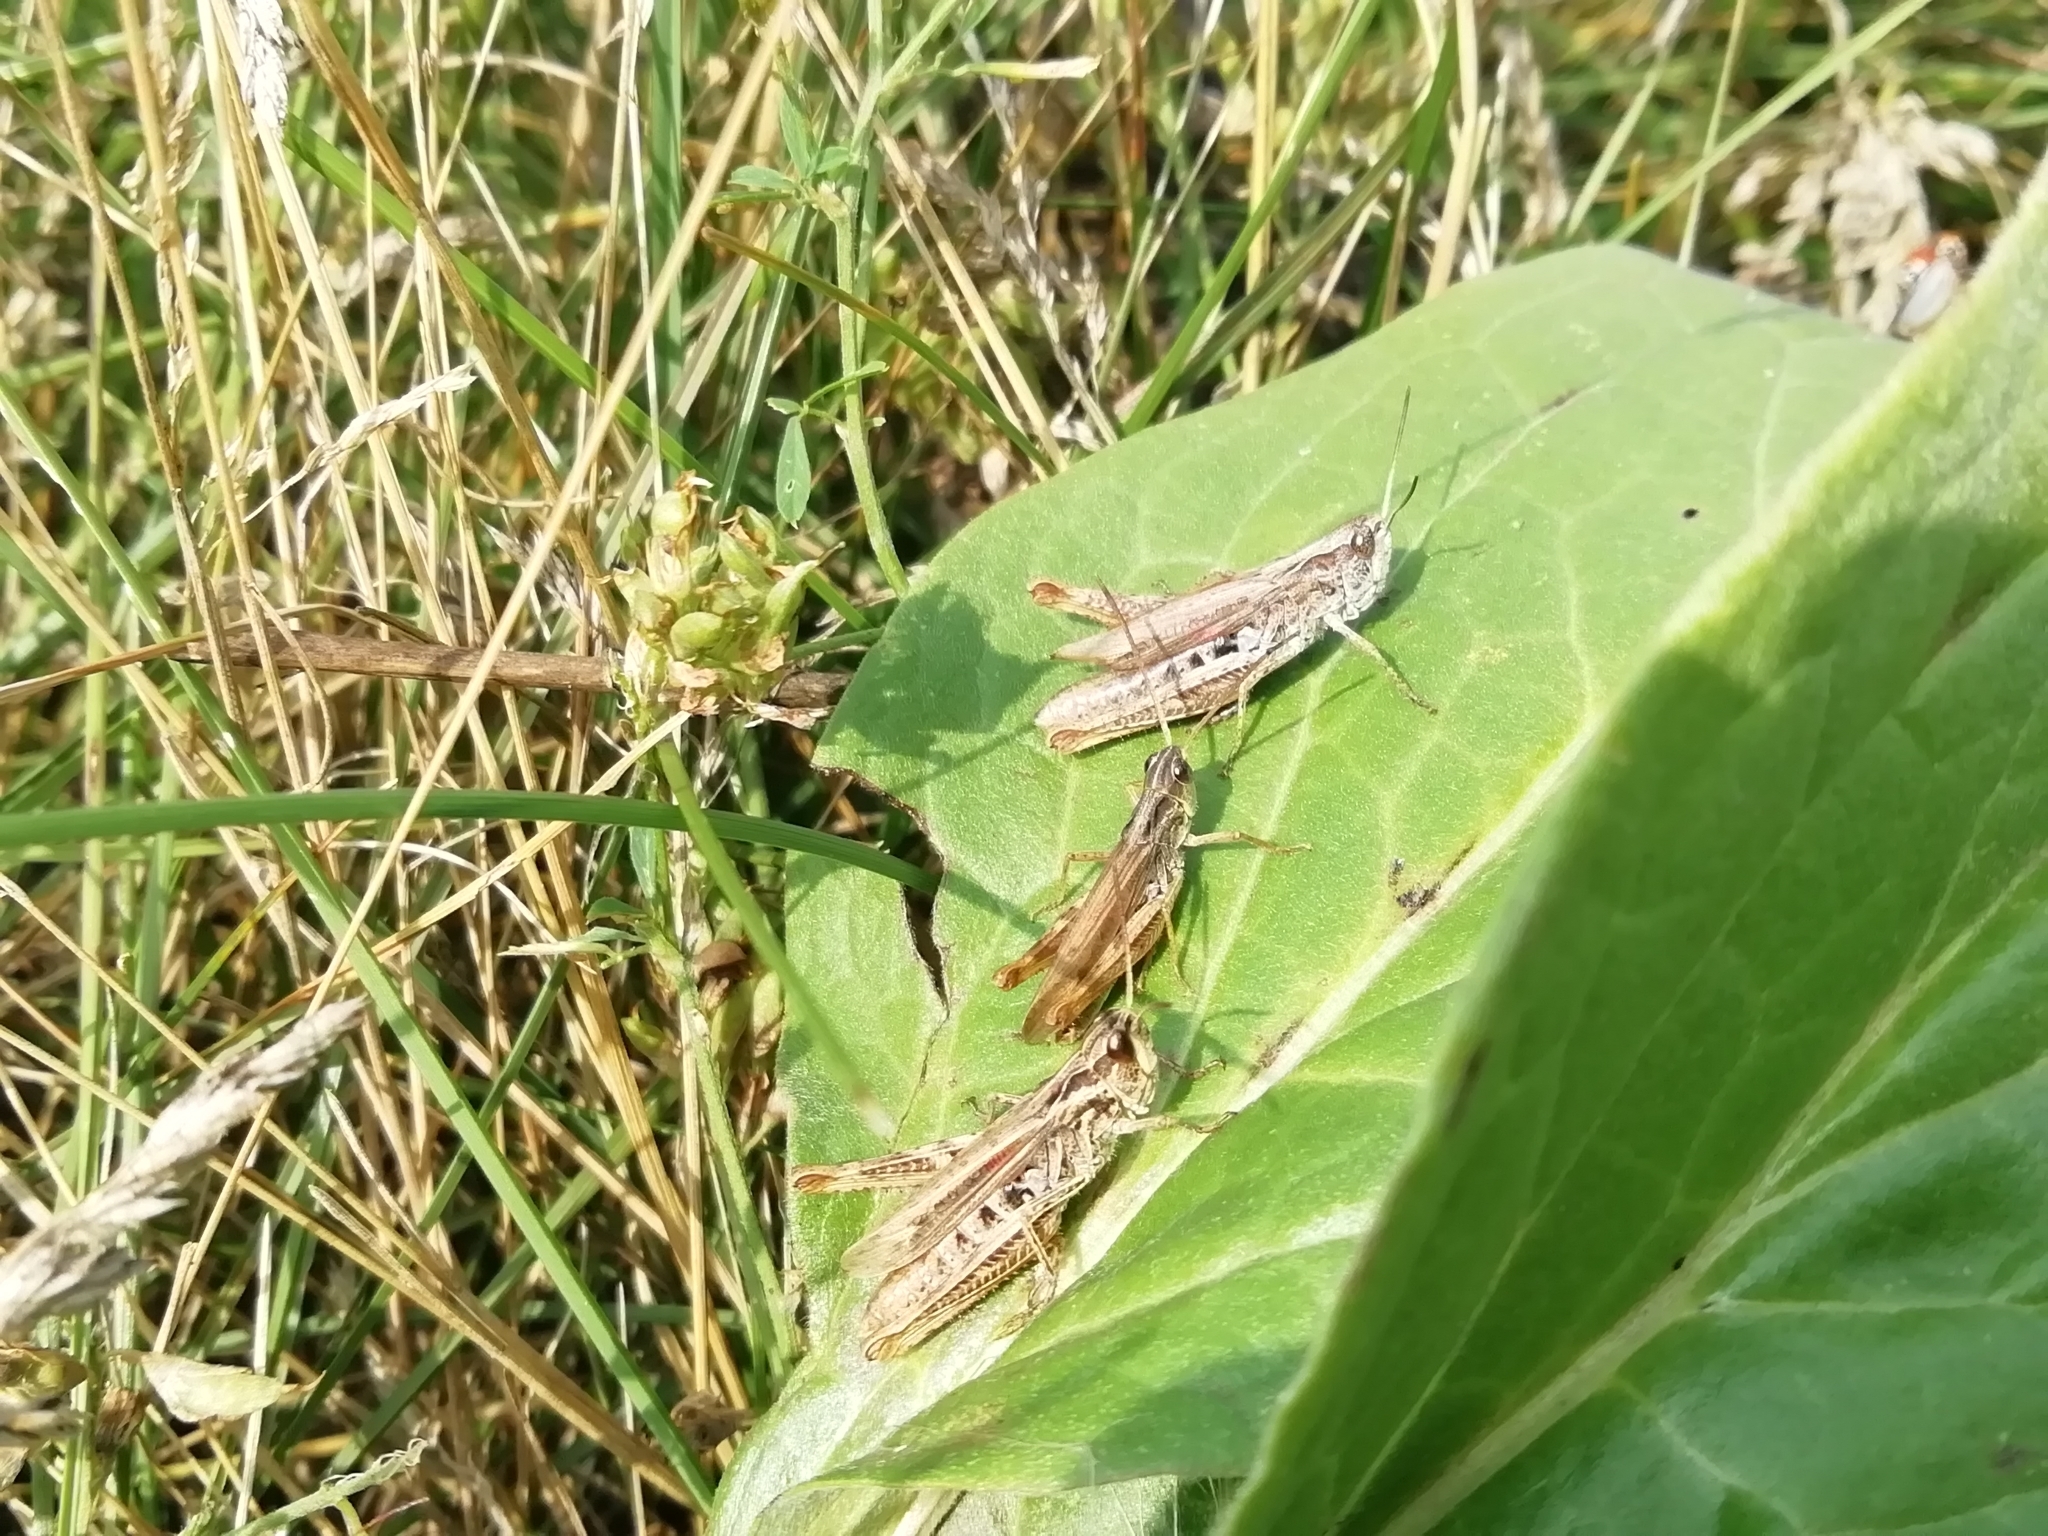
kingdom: Animalia
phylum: Arthropoda
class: Insecta
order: Orthoptera
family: Acrididae
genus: Chorthippus
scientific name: Chorthippus apricarius
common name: Upland field grasshopper
